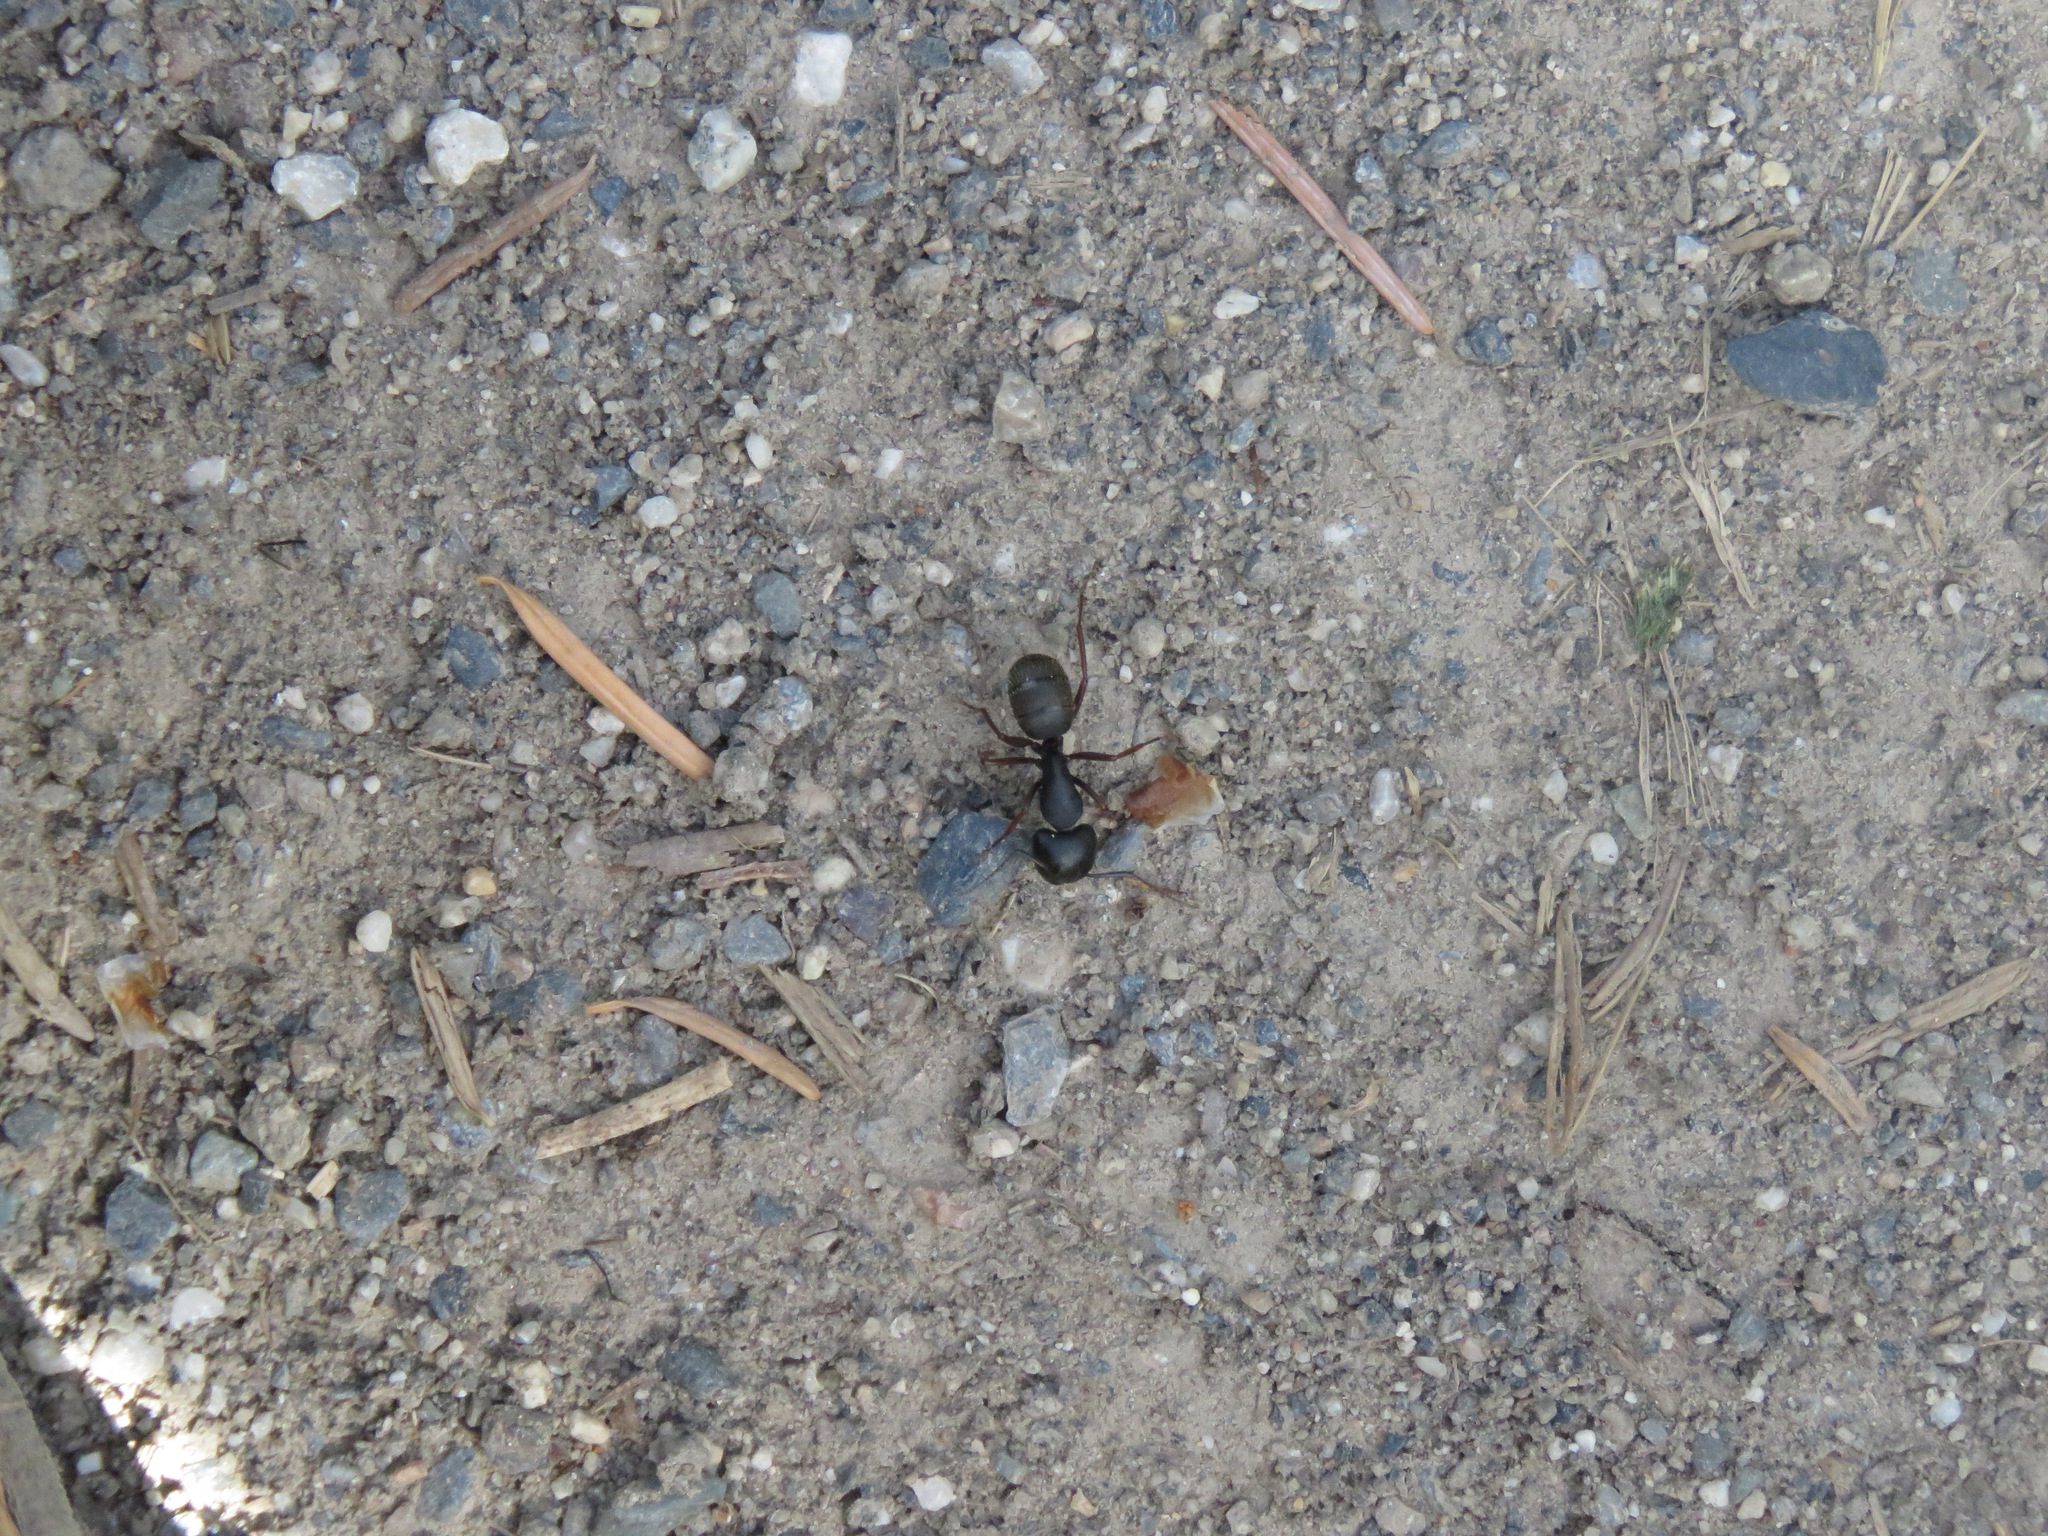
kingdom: Animalia
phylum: Arthropoda
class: Insecta
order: Hymenoptera
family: Formicidae
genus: Camponotus
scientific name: Camponotus modoc
